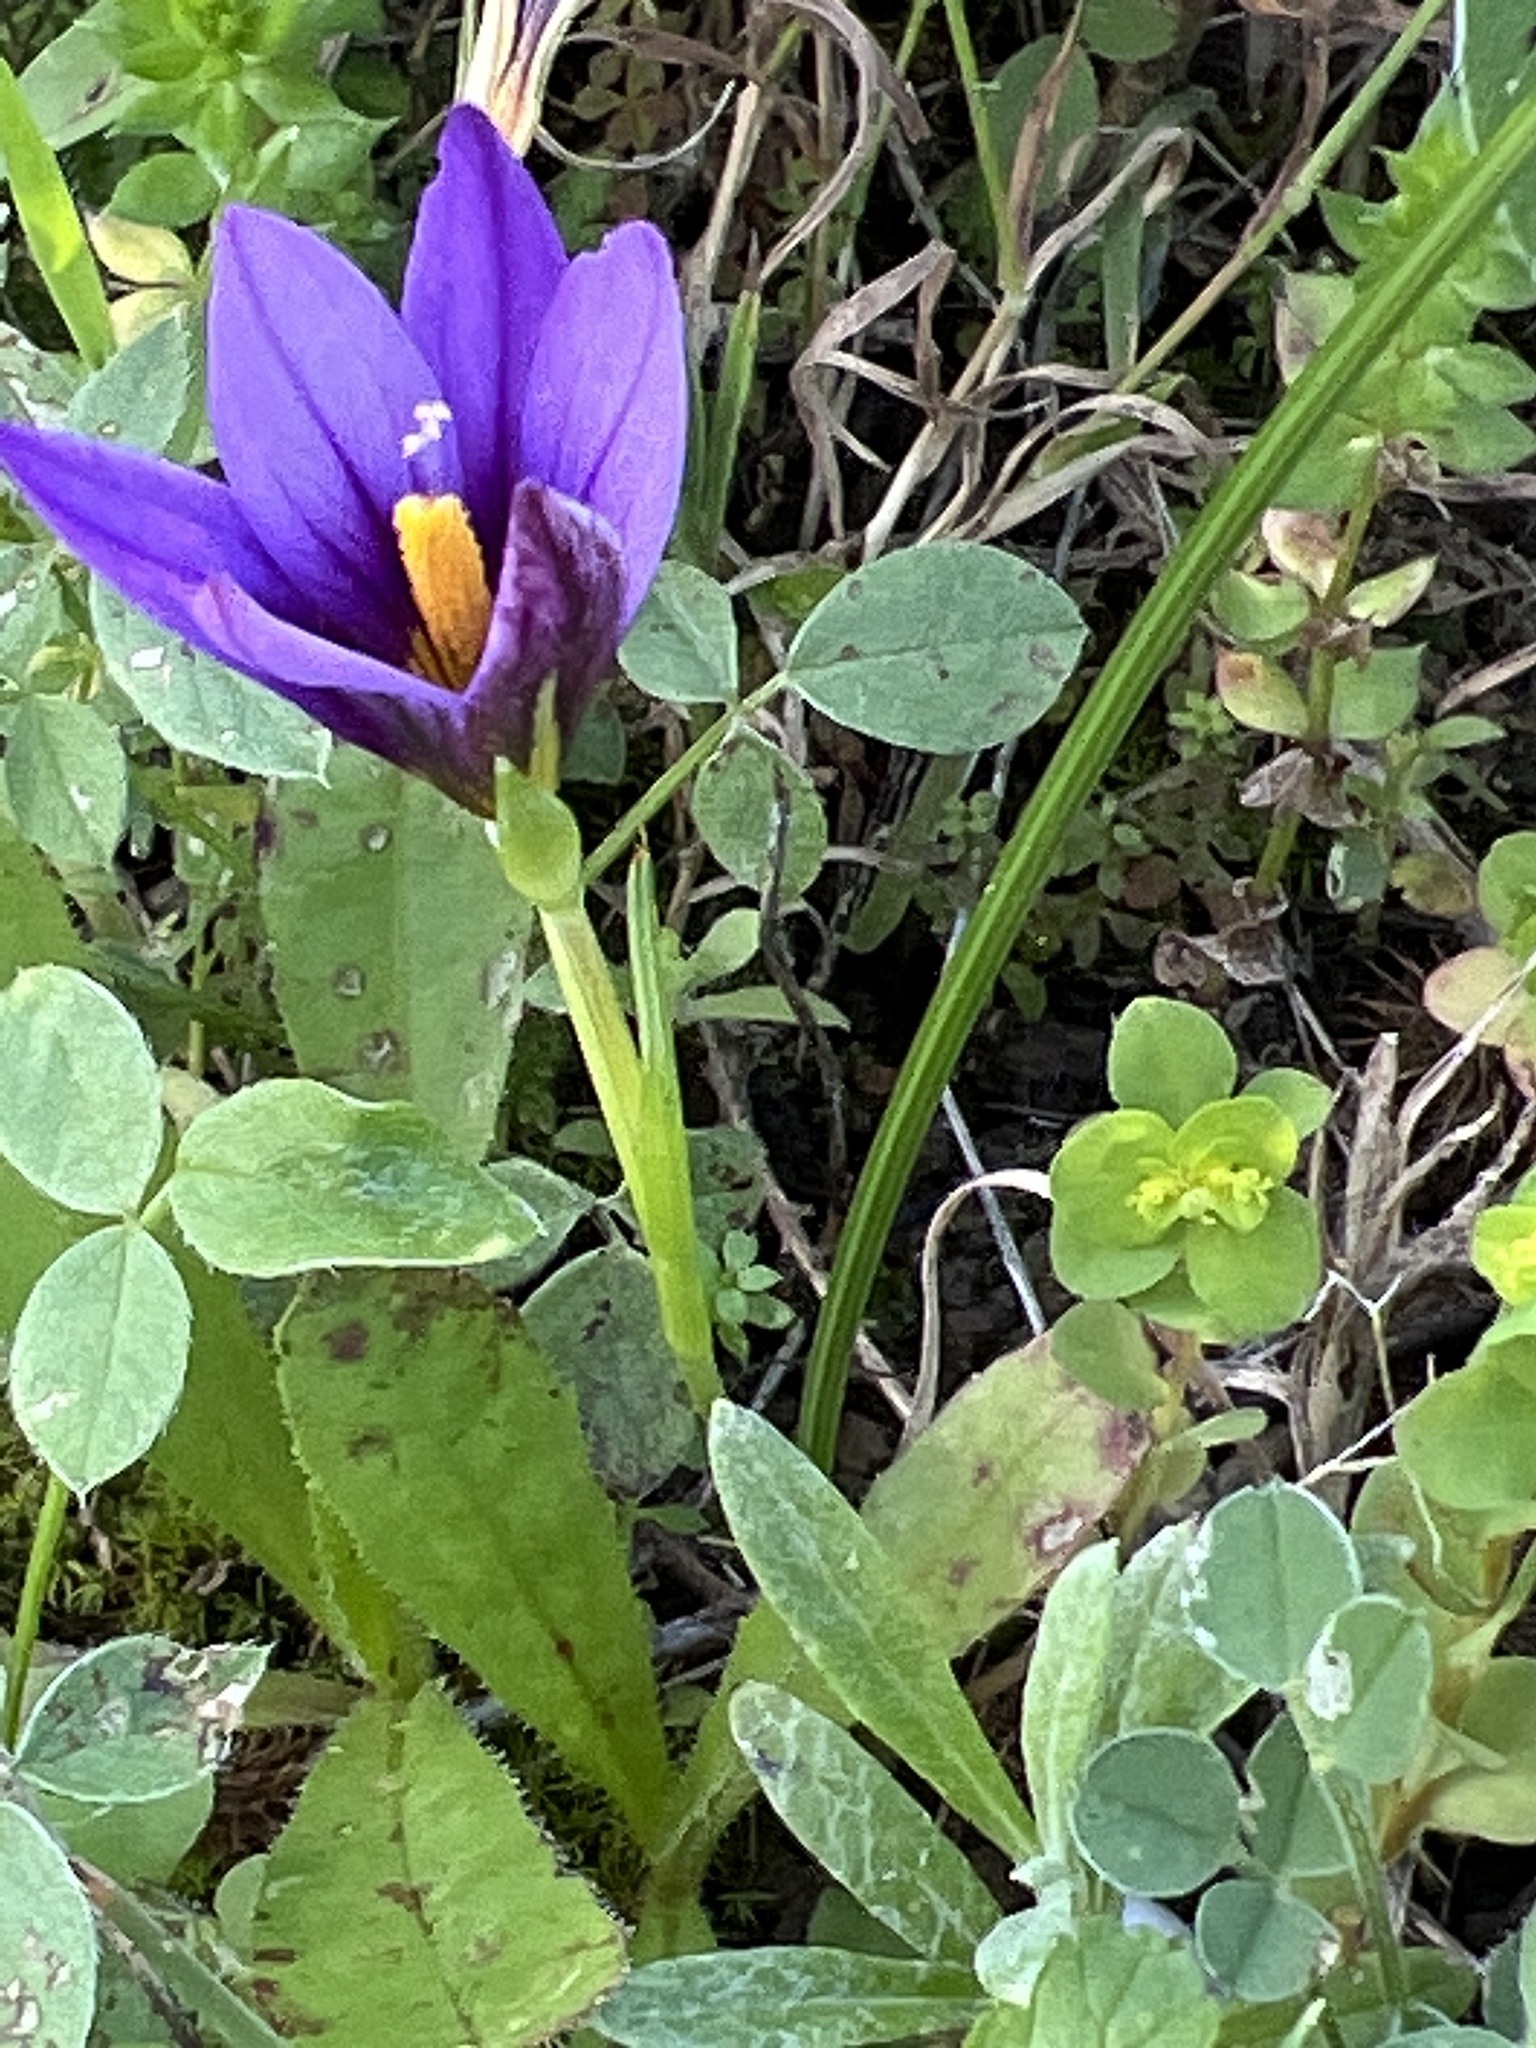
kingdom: Plantae
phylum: Tracheophyta
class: Liliopsida
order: Asparagales
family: Iridaceae
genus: Romulea
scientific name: Romulea columnae
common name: Sand-crocus
